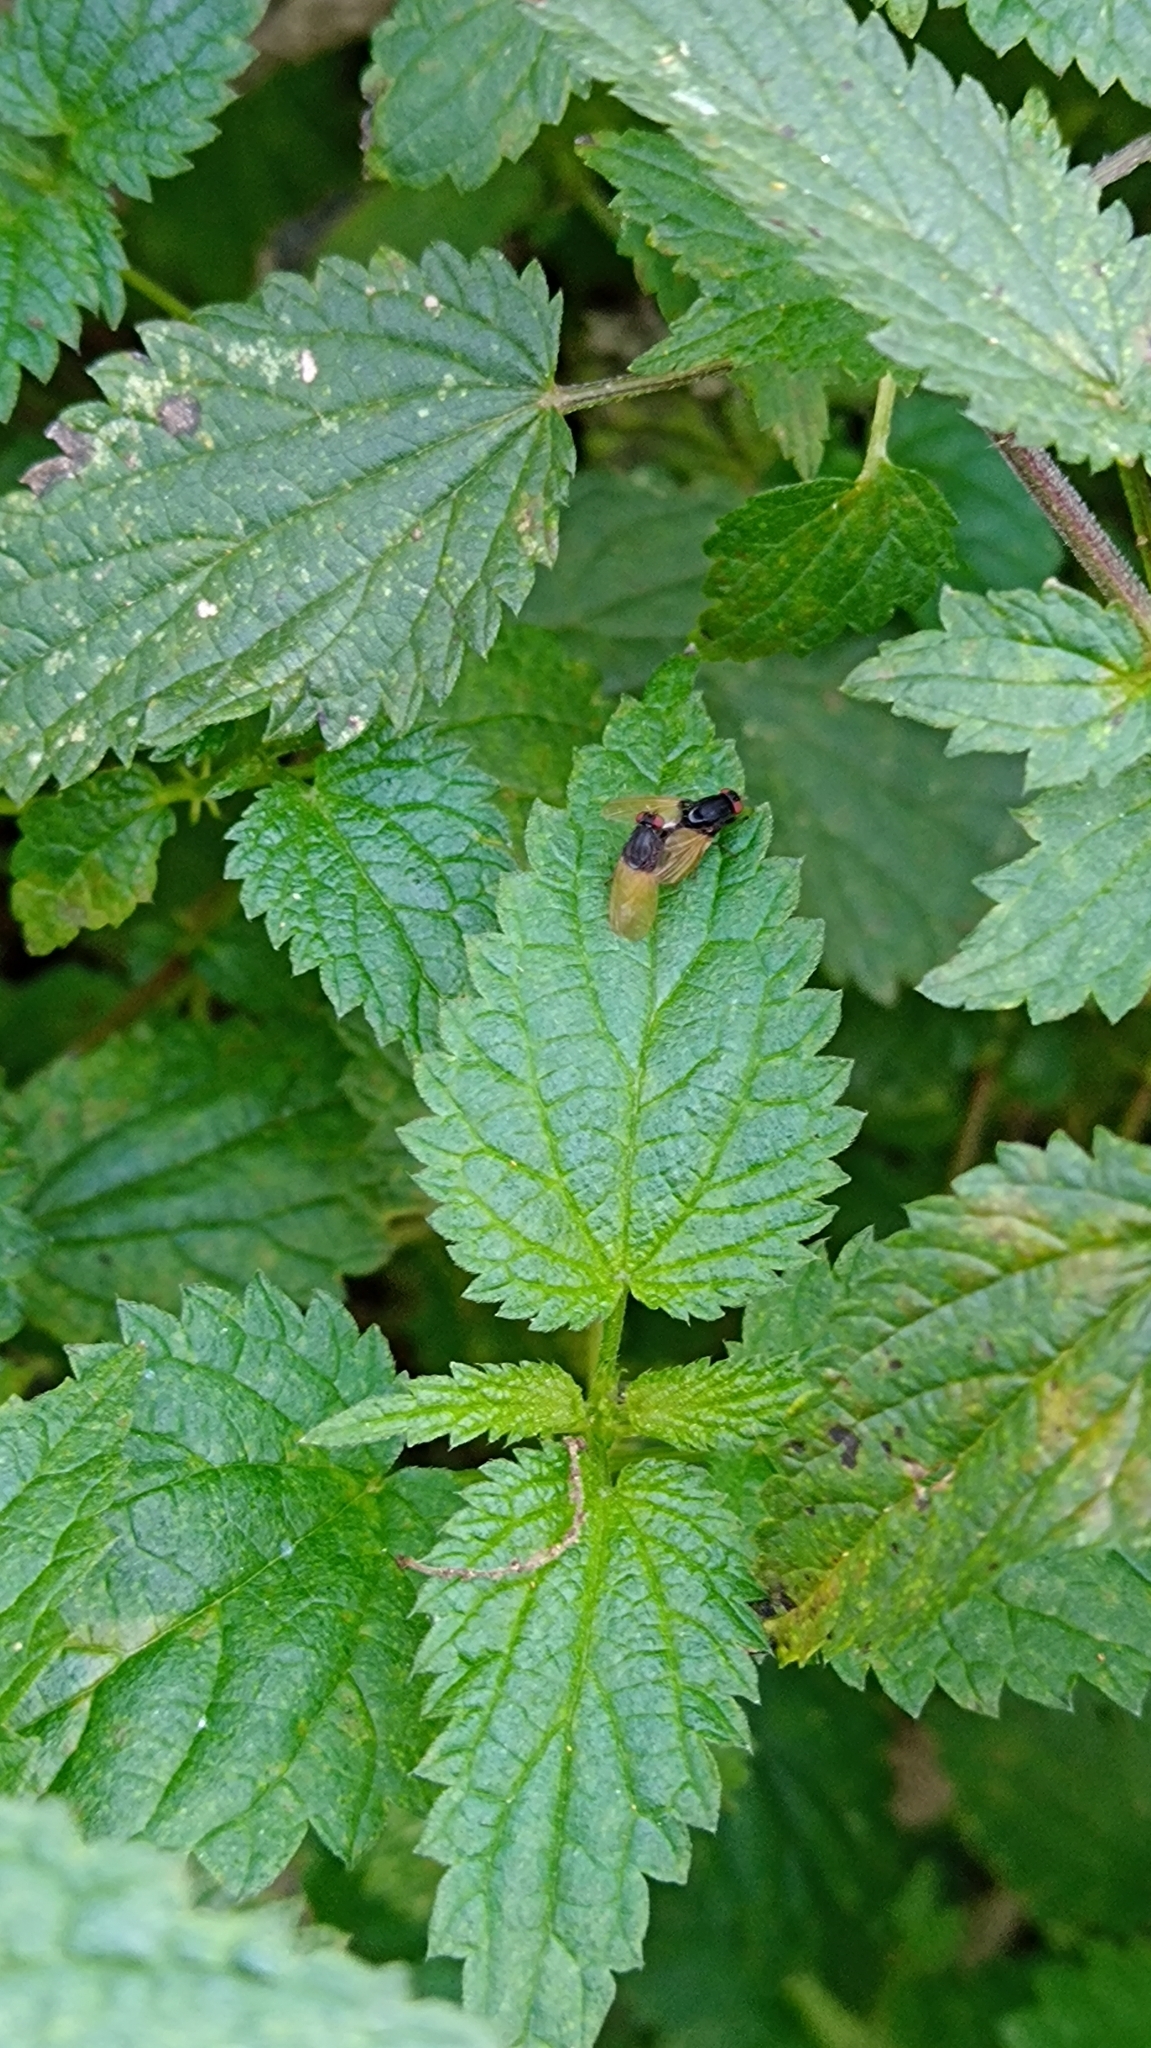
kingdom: Animalia
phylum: Arthropoda
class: Insecta
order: Diptera
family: Lauxaniidae
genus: Minettia
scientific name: Minettia longipennis
